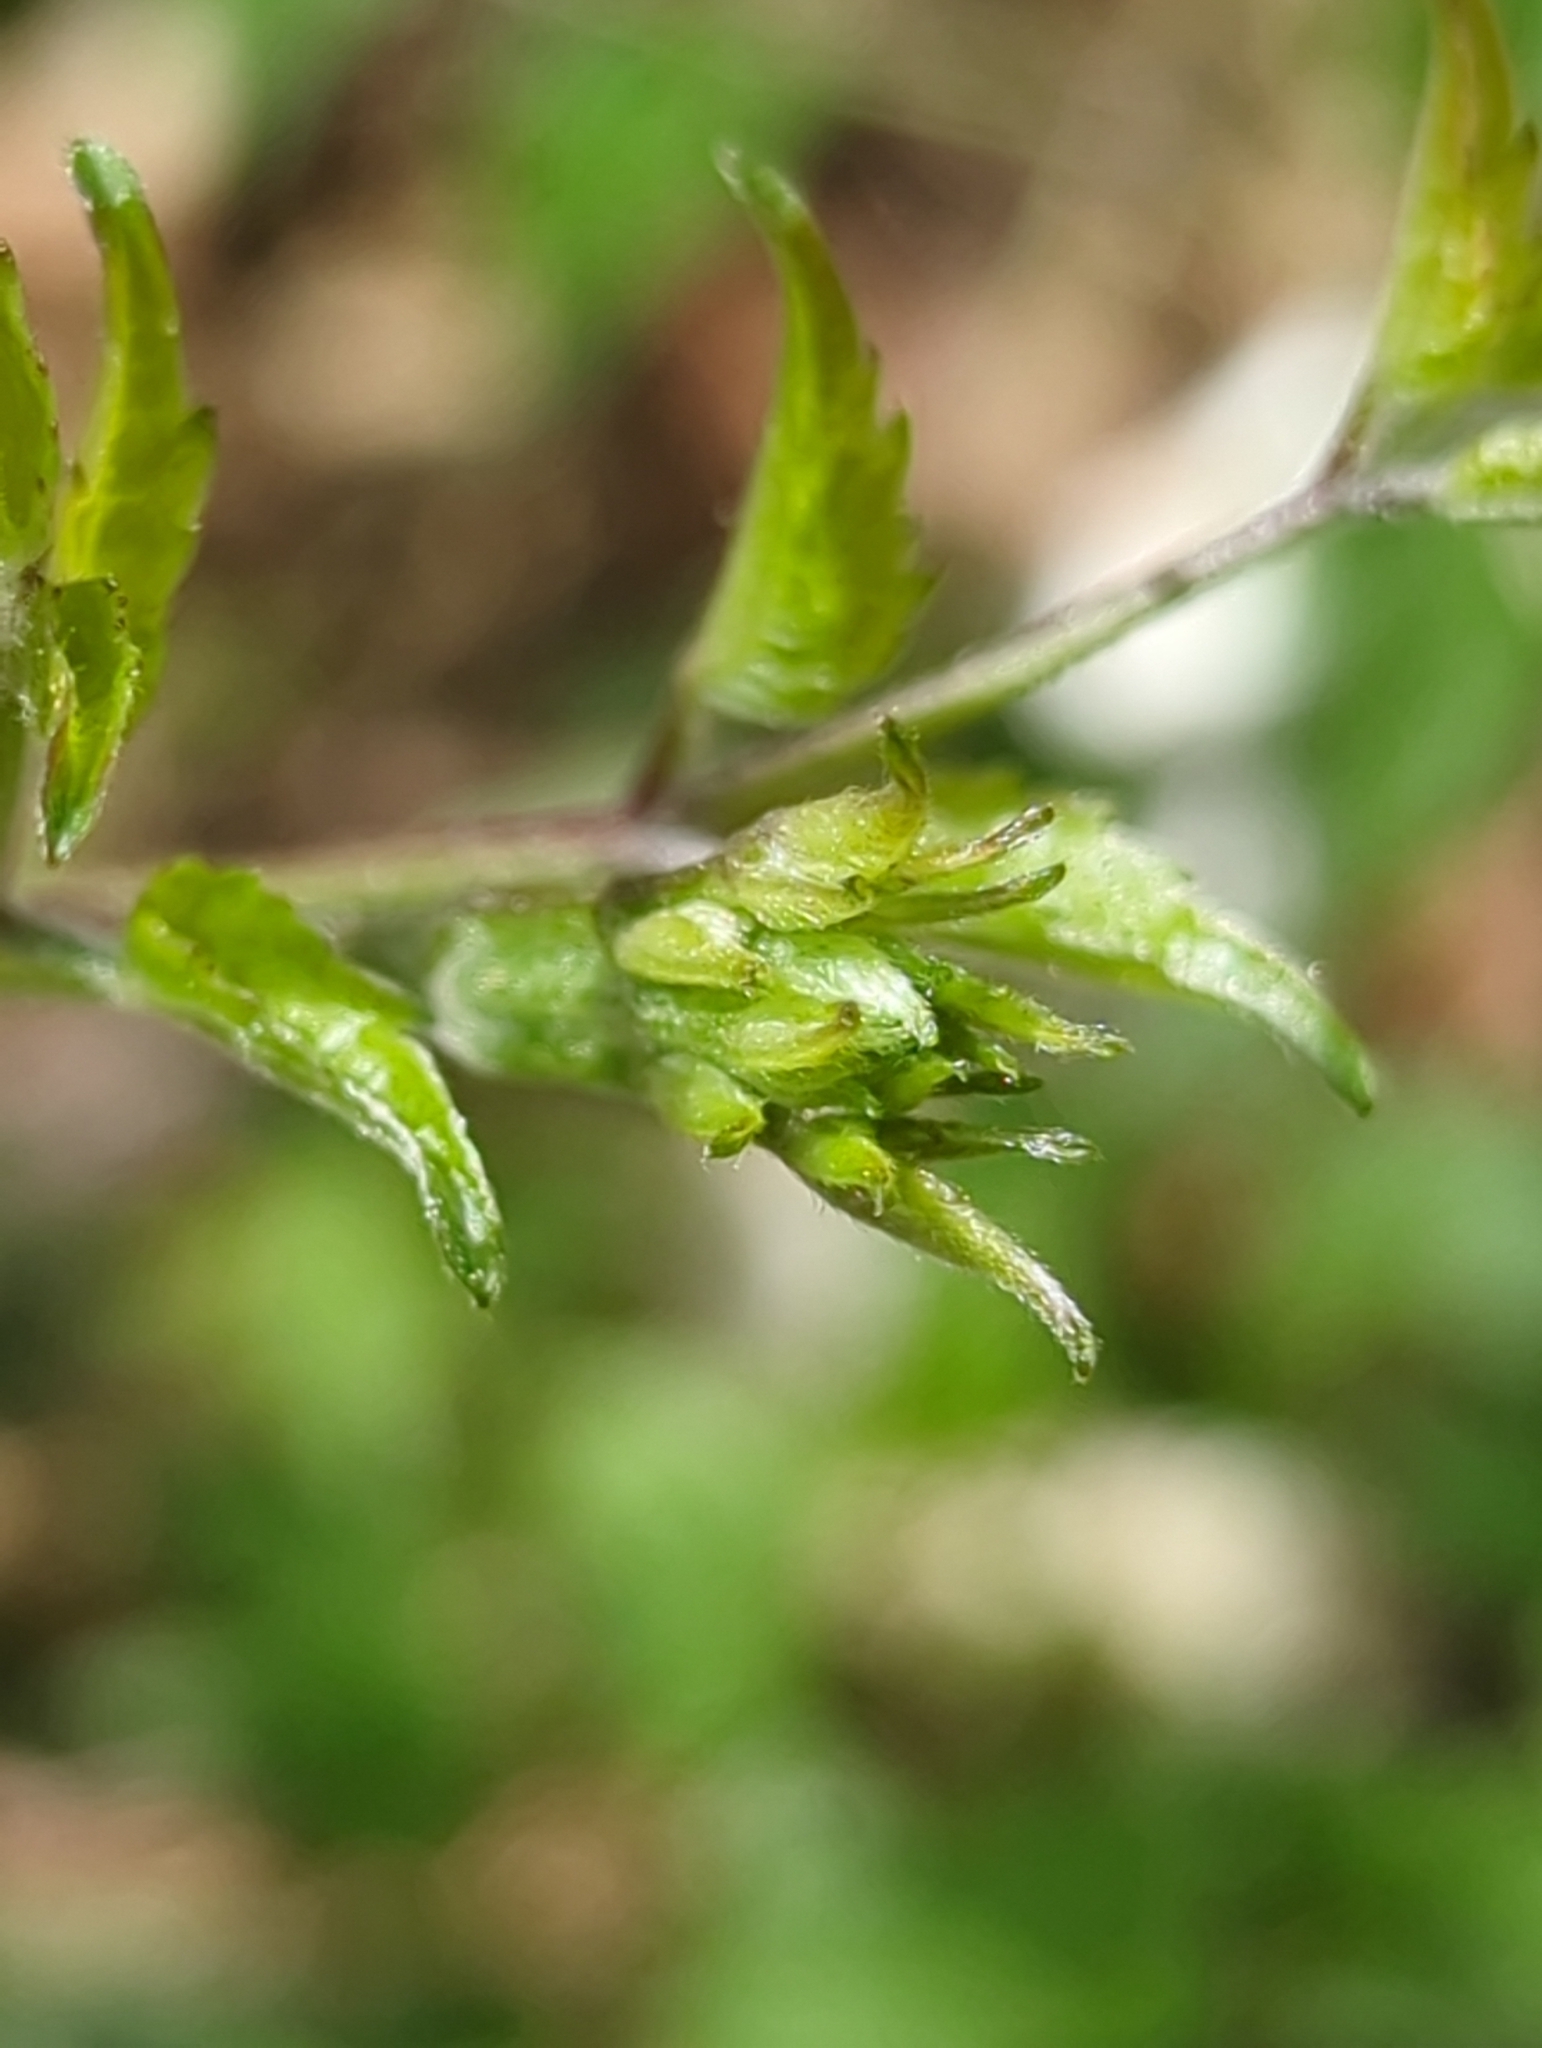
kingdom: Plantae
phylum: Tracheophyta
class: Magnoliopsida
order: Ranunculales
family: Ranunculaceae
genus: Clematis
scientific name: Clematis vitalba
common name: Evergreen clematis
